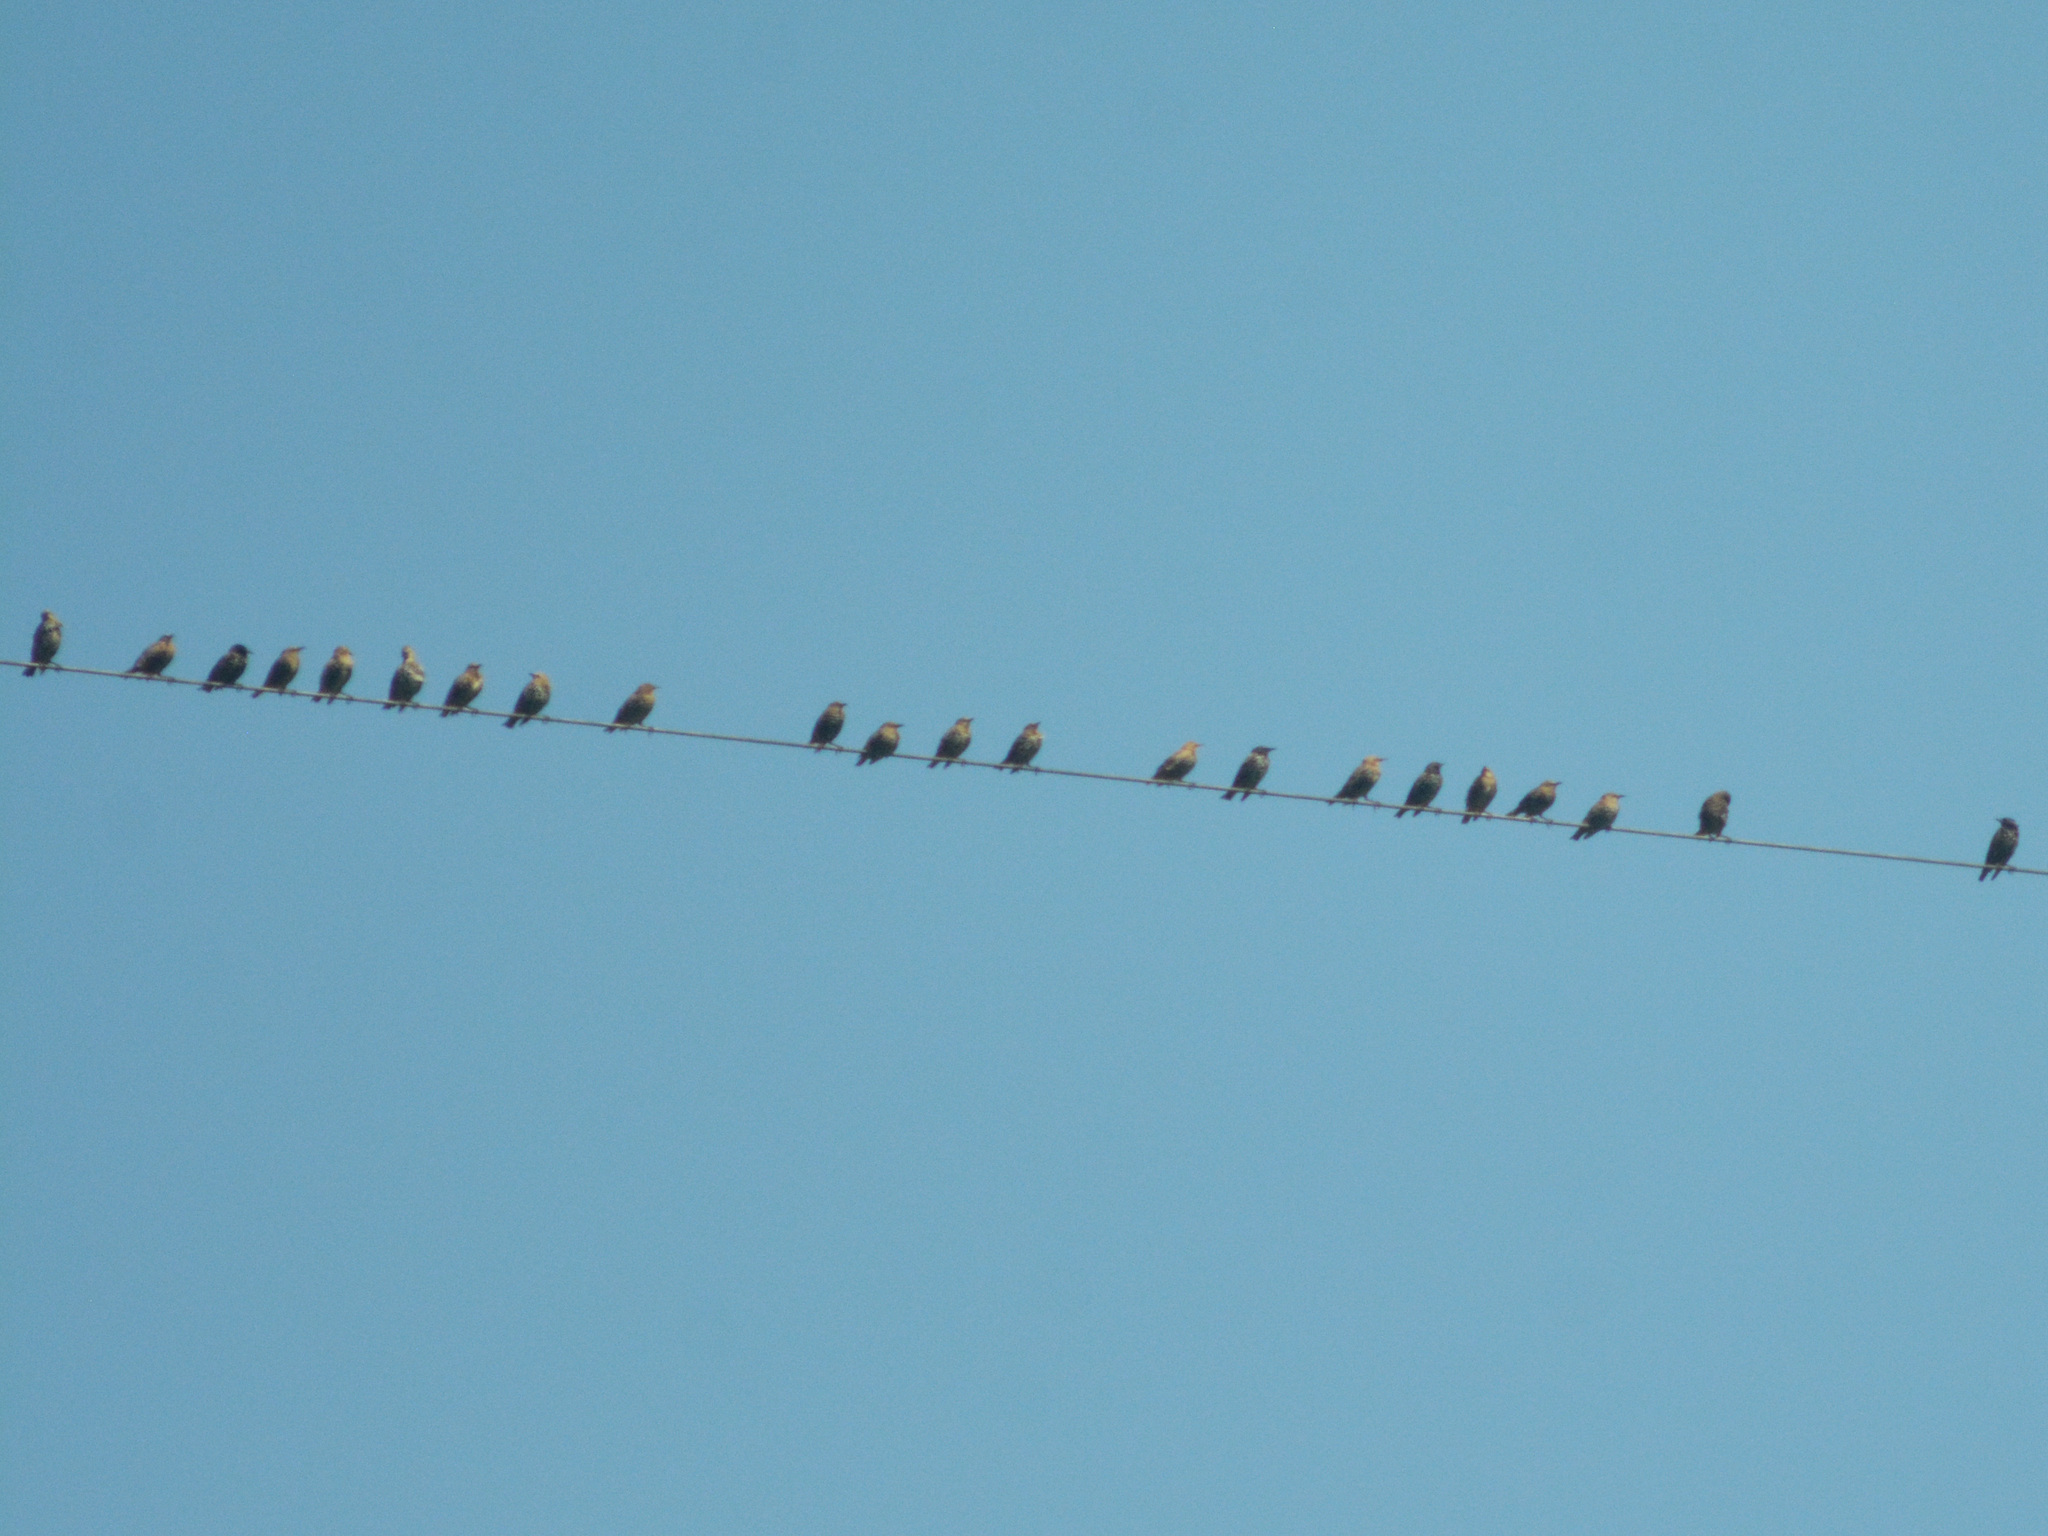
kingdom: Animalia
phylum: Chordata
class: Aves
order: Passeriformes
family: Sturnidae
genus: Sturnus
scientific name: Sturnus vulgaris
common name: Common starling
